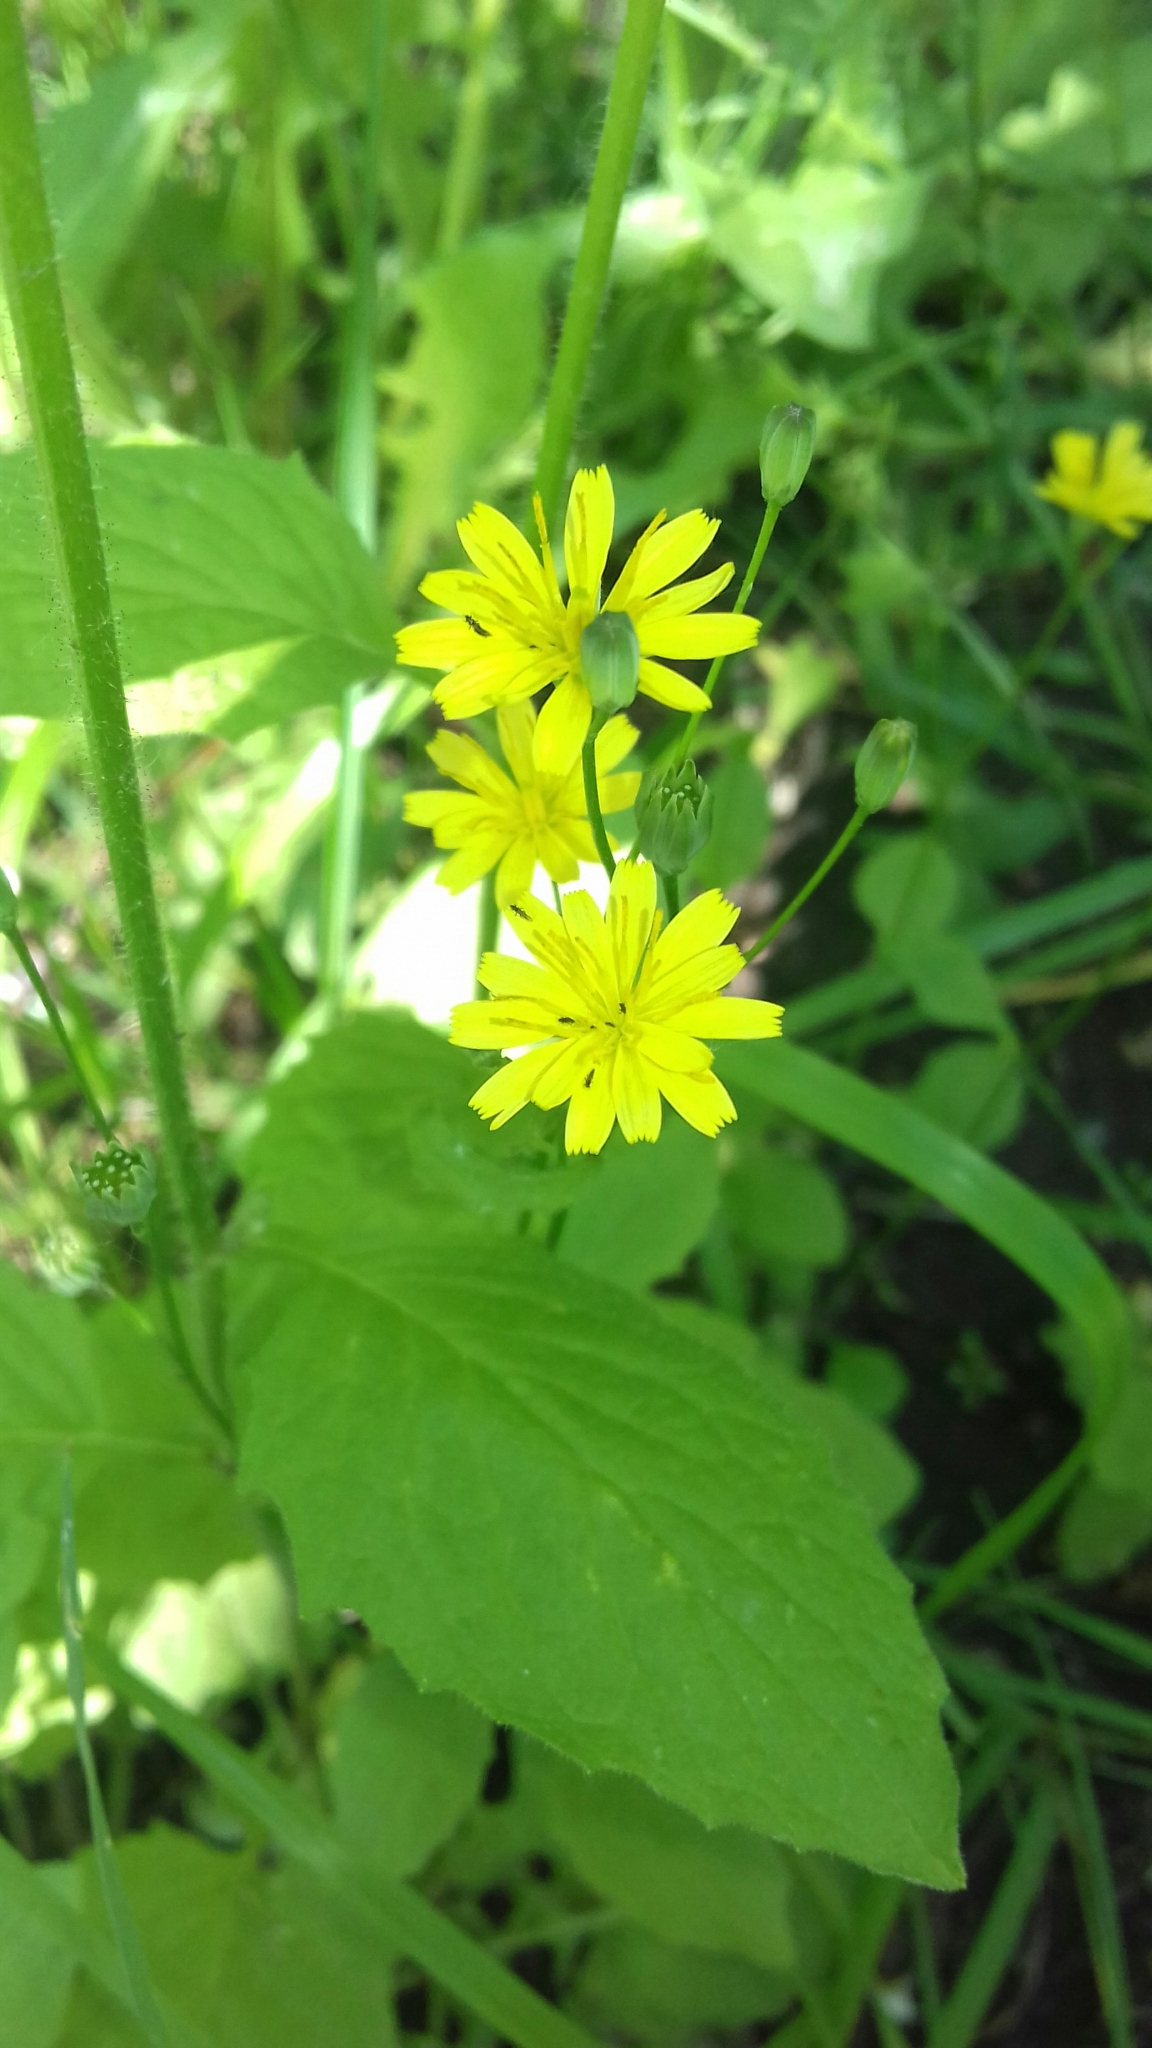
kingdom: Plantae
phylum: Tracheophyta
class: Magnoliopsida
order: Asterales
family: Asteraceae
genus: Lapsana
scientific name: Lapsana communis
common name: Nipplewort
